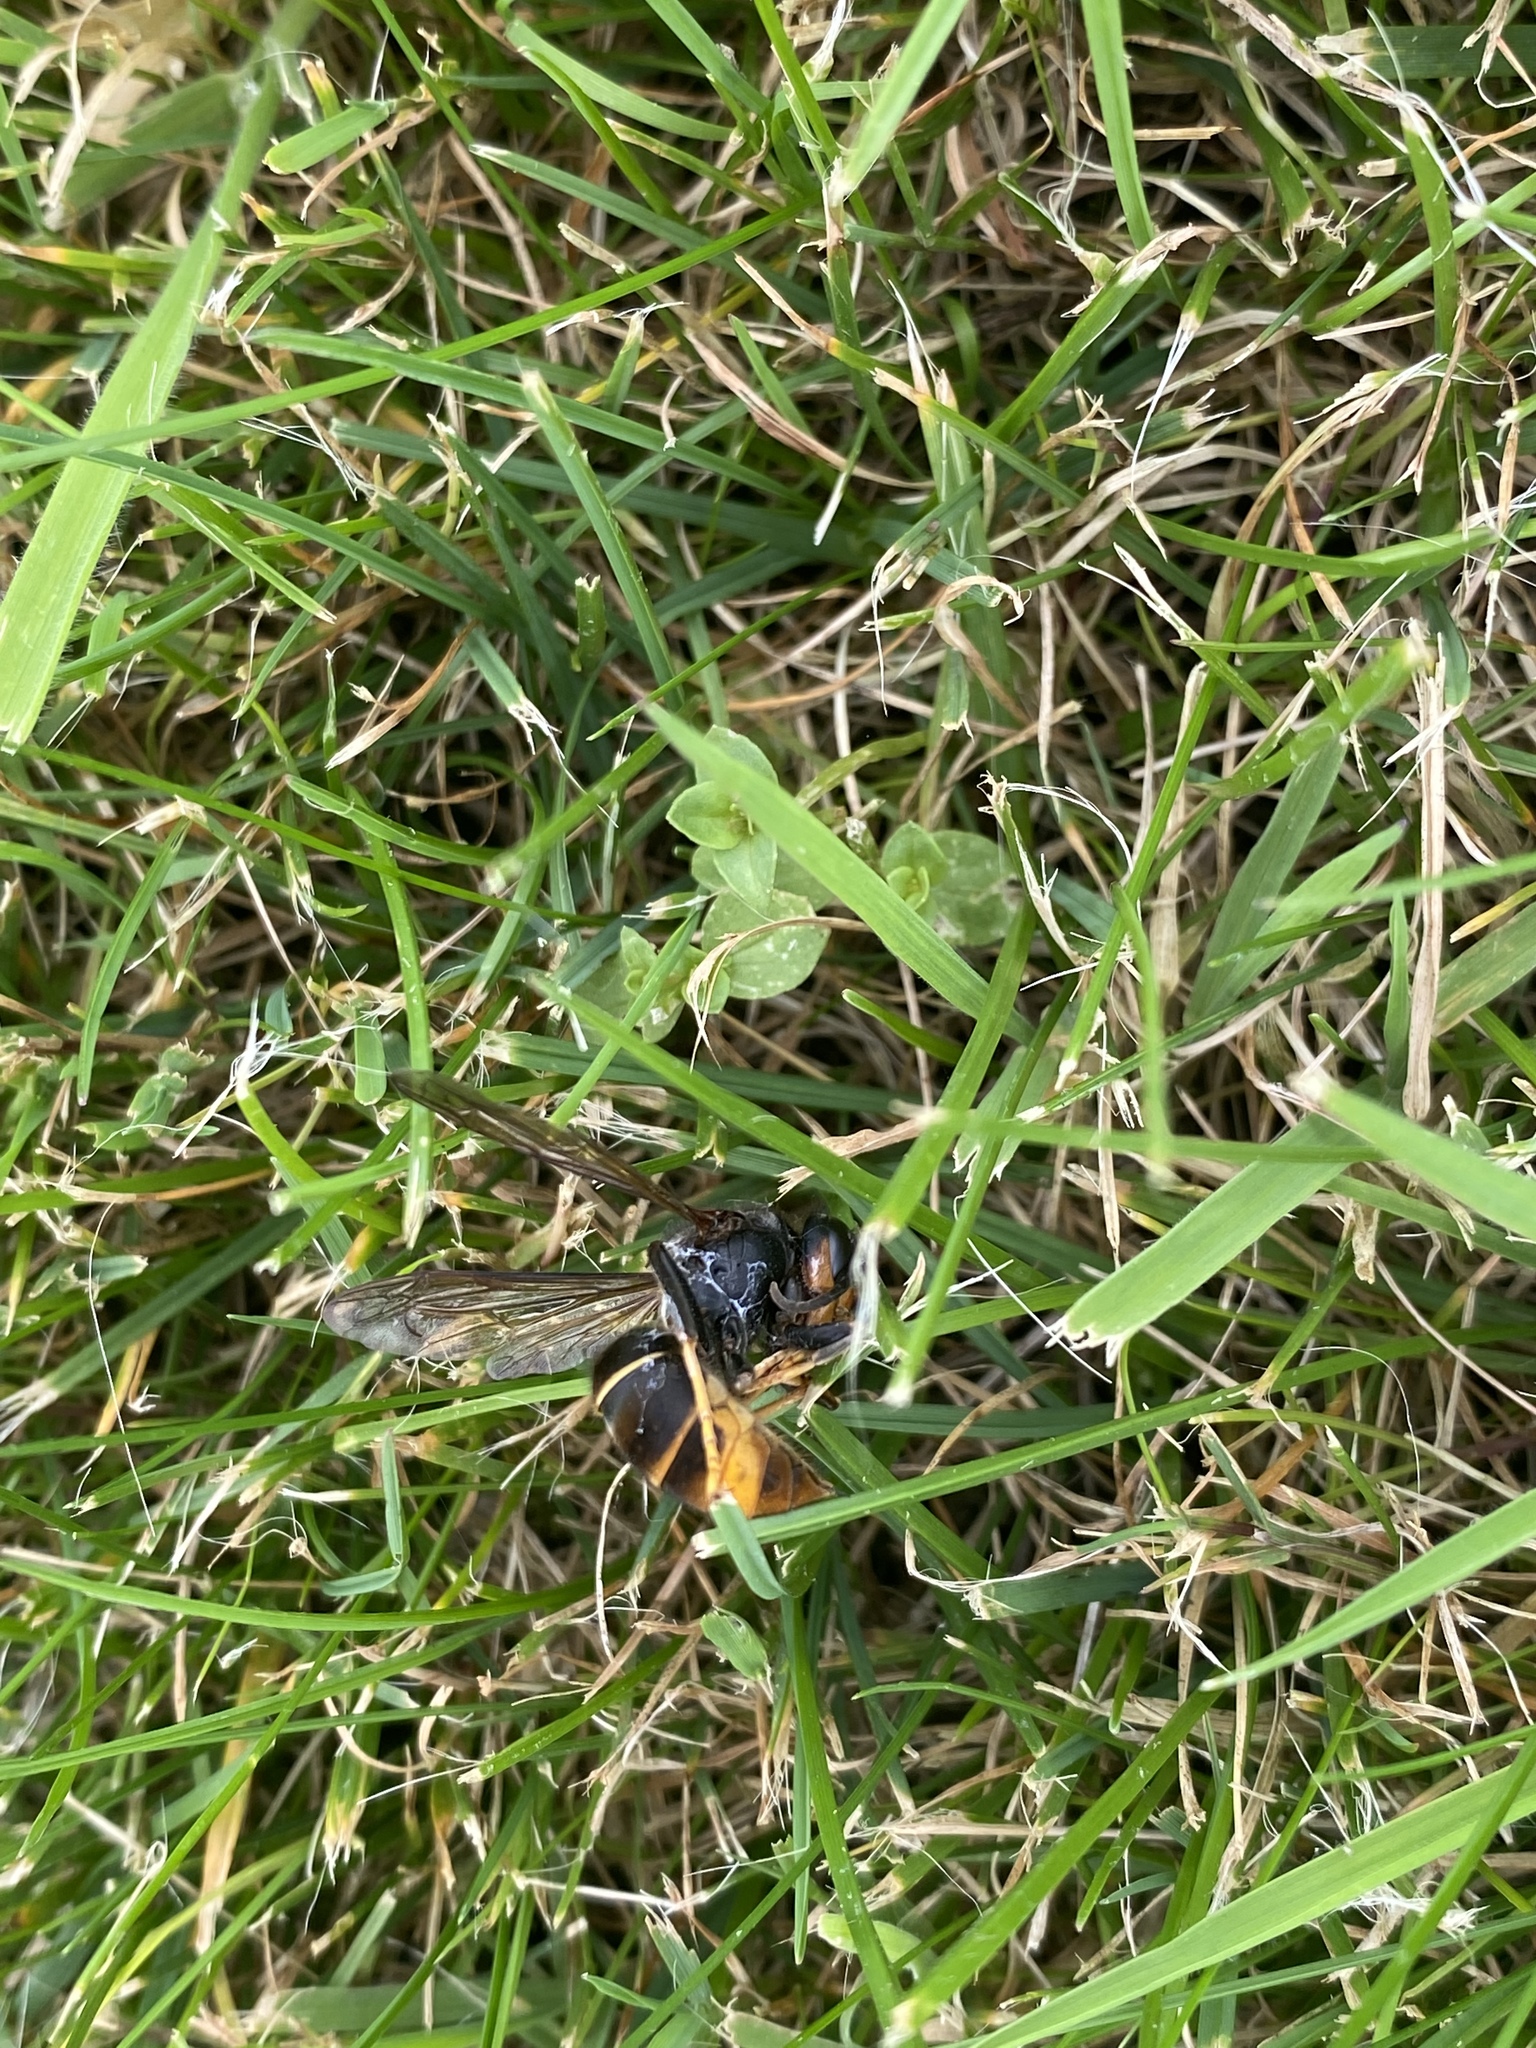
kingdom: Animalia
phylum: Arthropoda
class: Insecta
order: Hymenoptera
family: Vespidae
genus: Vespa
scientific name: Vespa velutina
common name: Asian hornet
